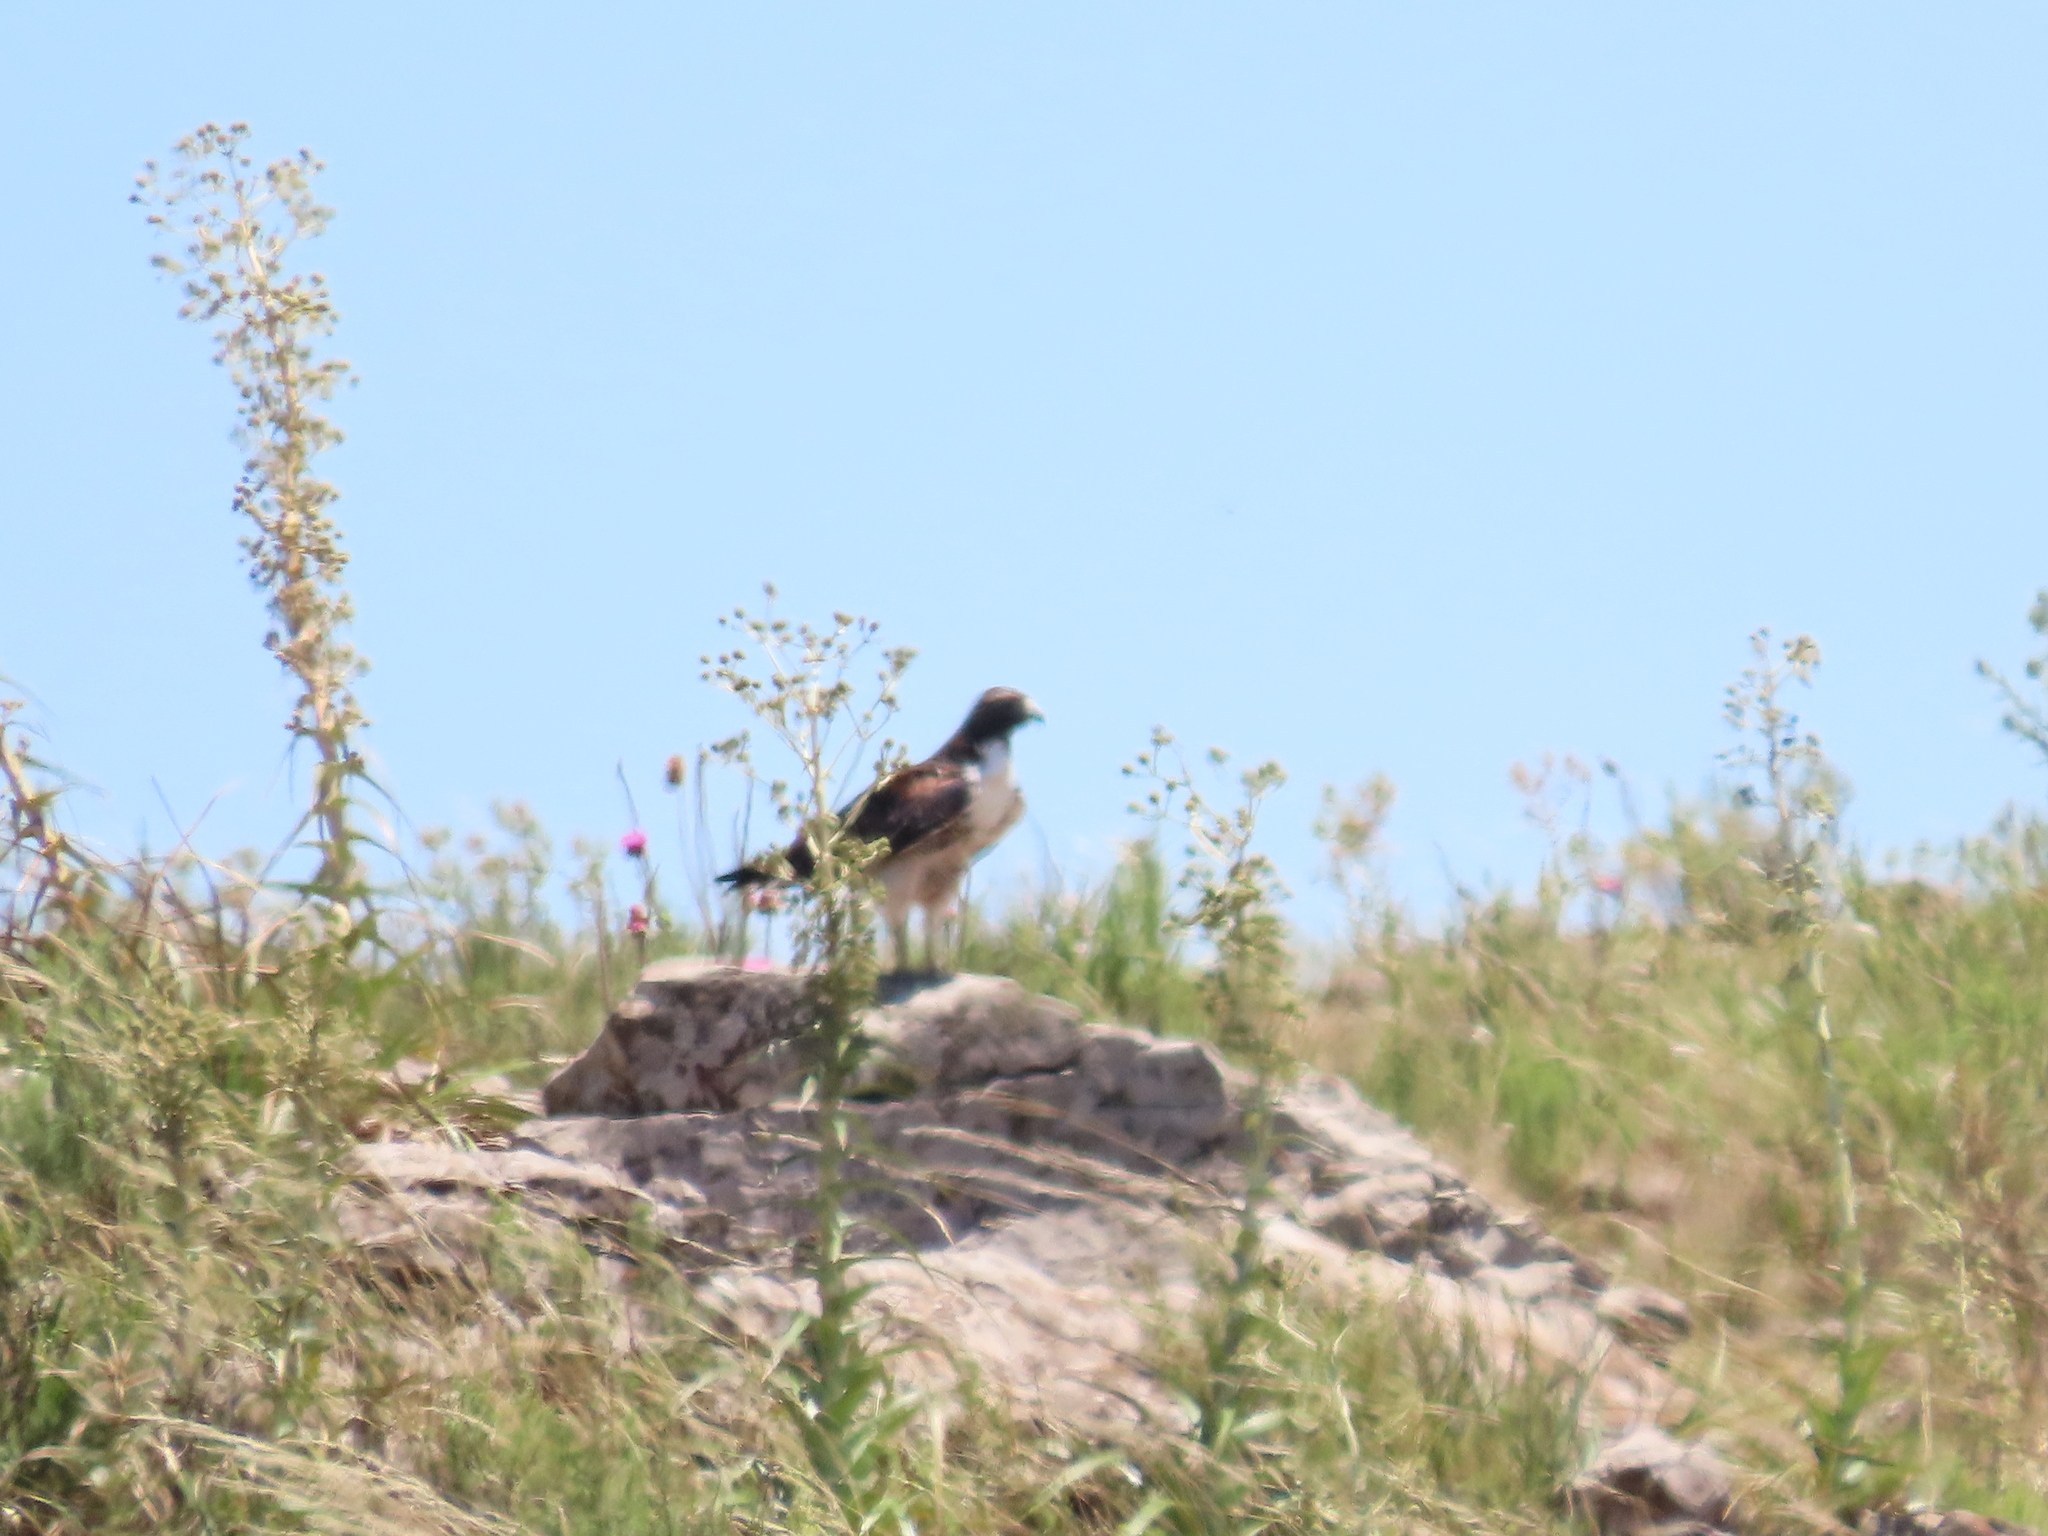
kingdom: Animalia
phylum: Chordata
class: Aves
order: Accipitriformes
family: Accipitridae
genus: Buteo
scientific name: Buteo albicaudatus
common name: White-tailed hawk
